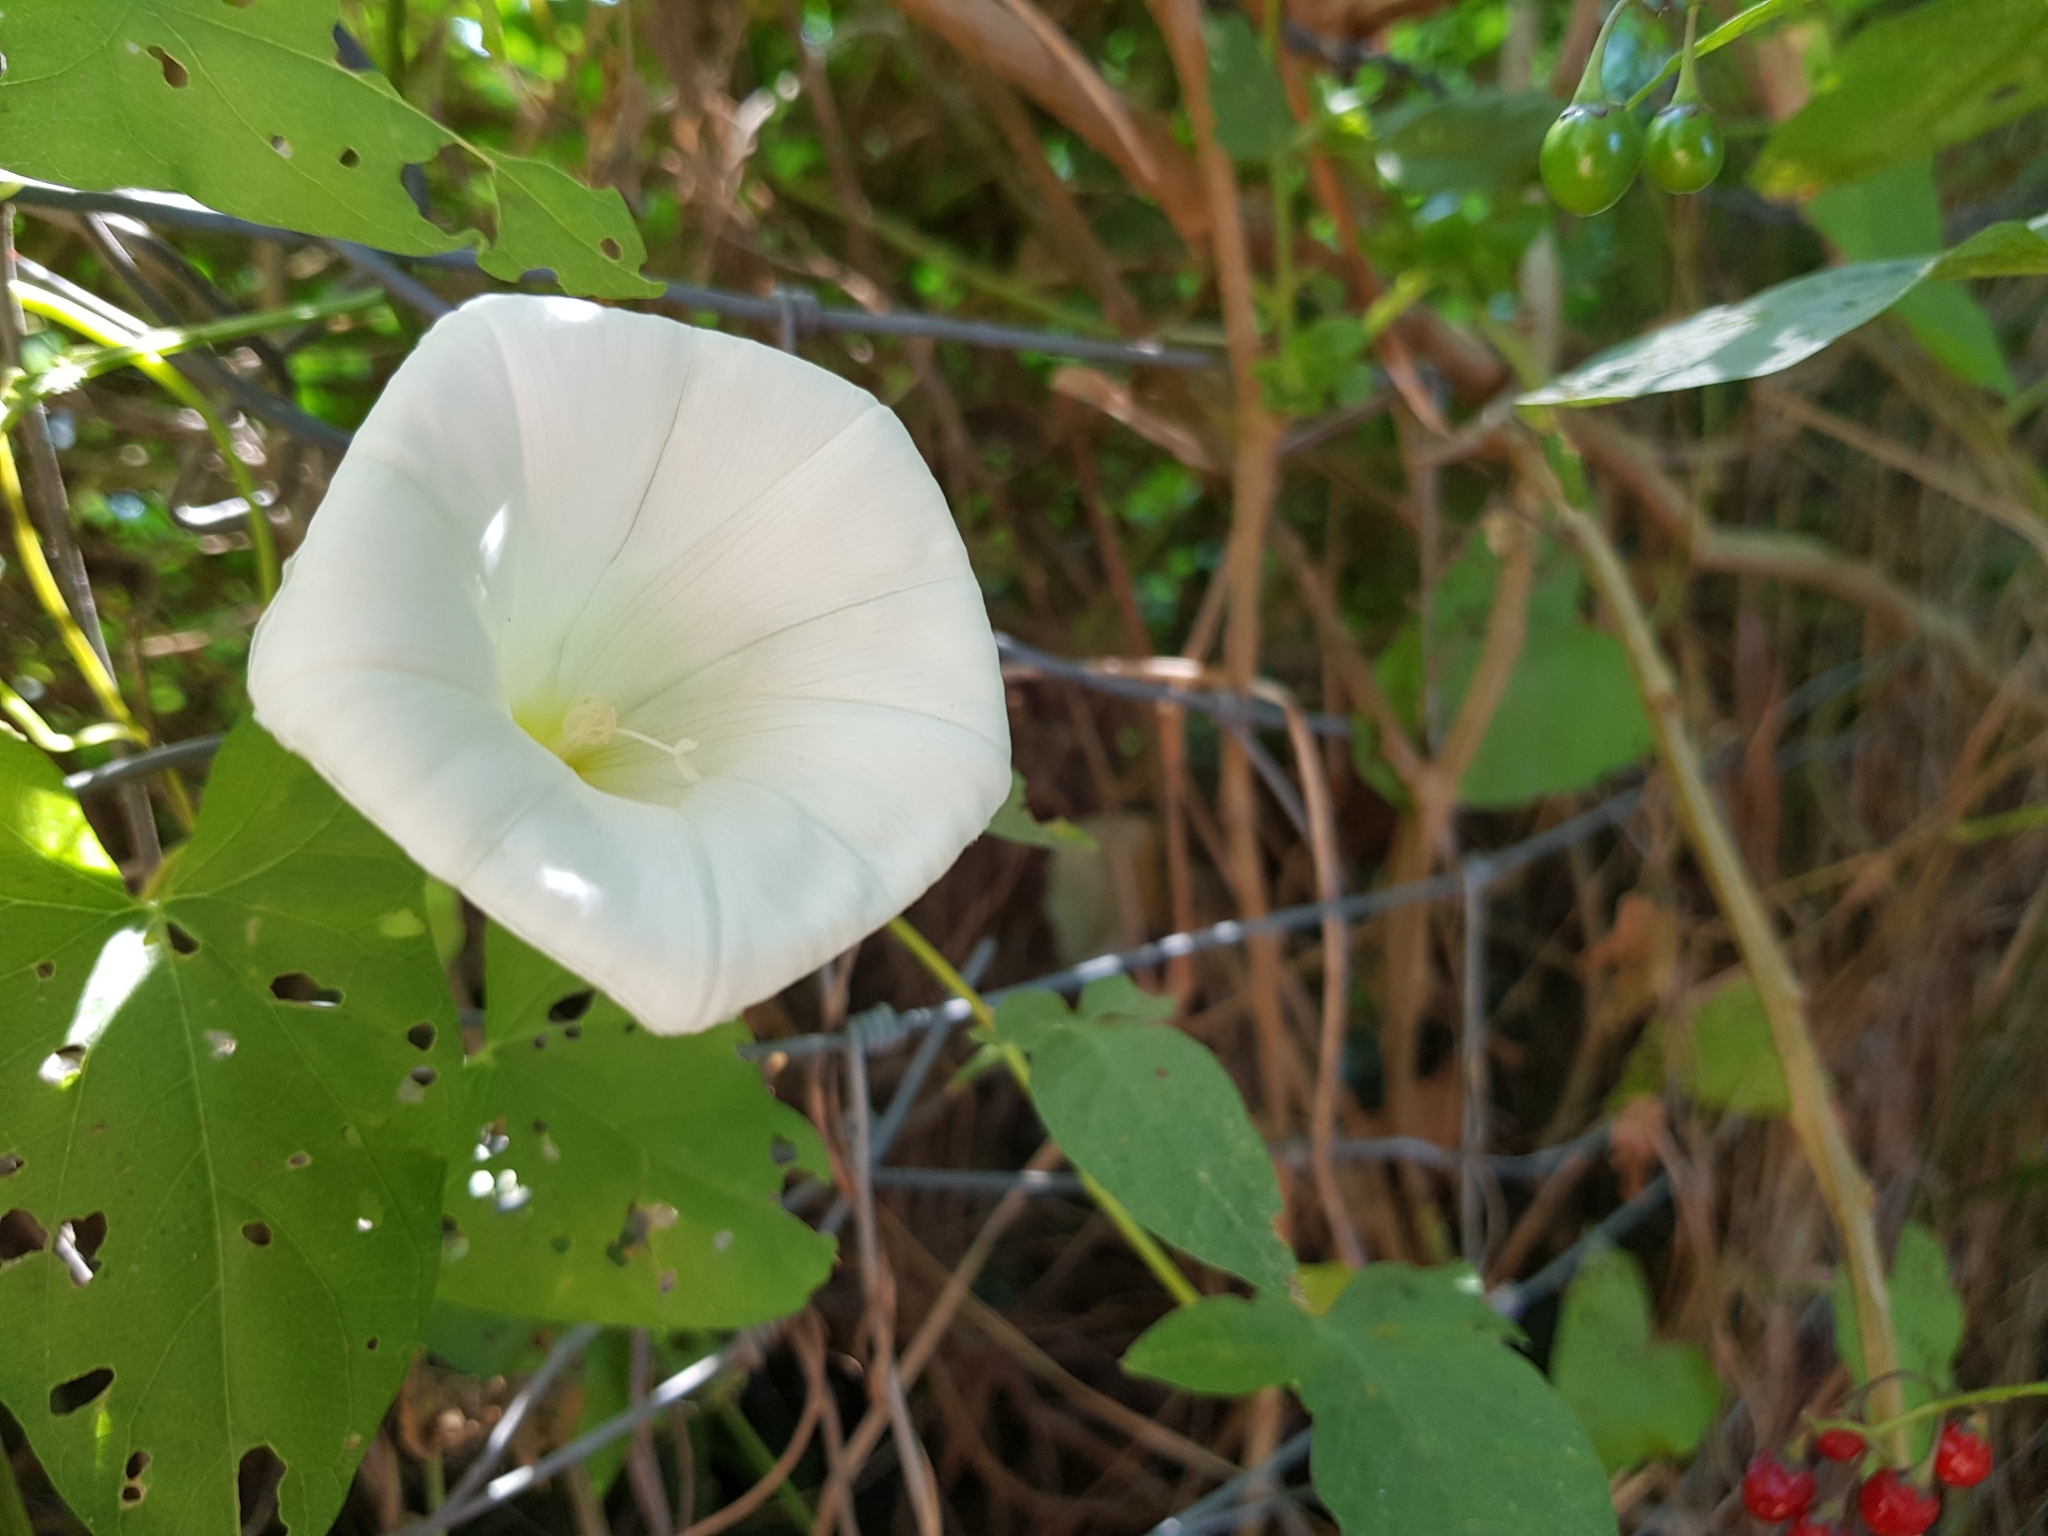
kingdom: Plantae
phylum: Tracheophyta
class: Magnoliopsida
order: Solanales
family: Convolvulaceae
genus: Calystegia
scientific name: Calystegia
